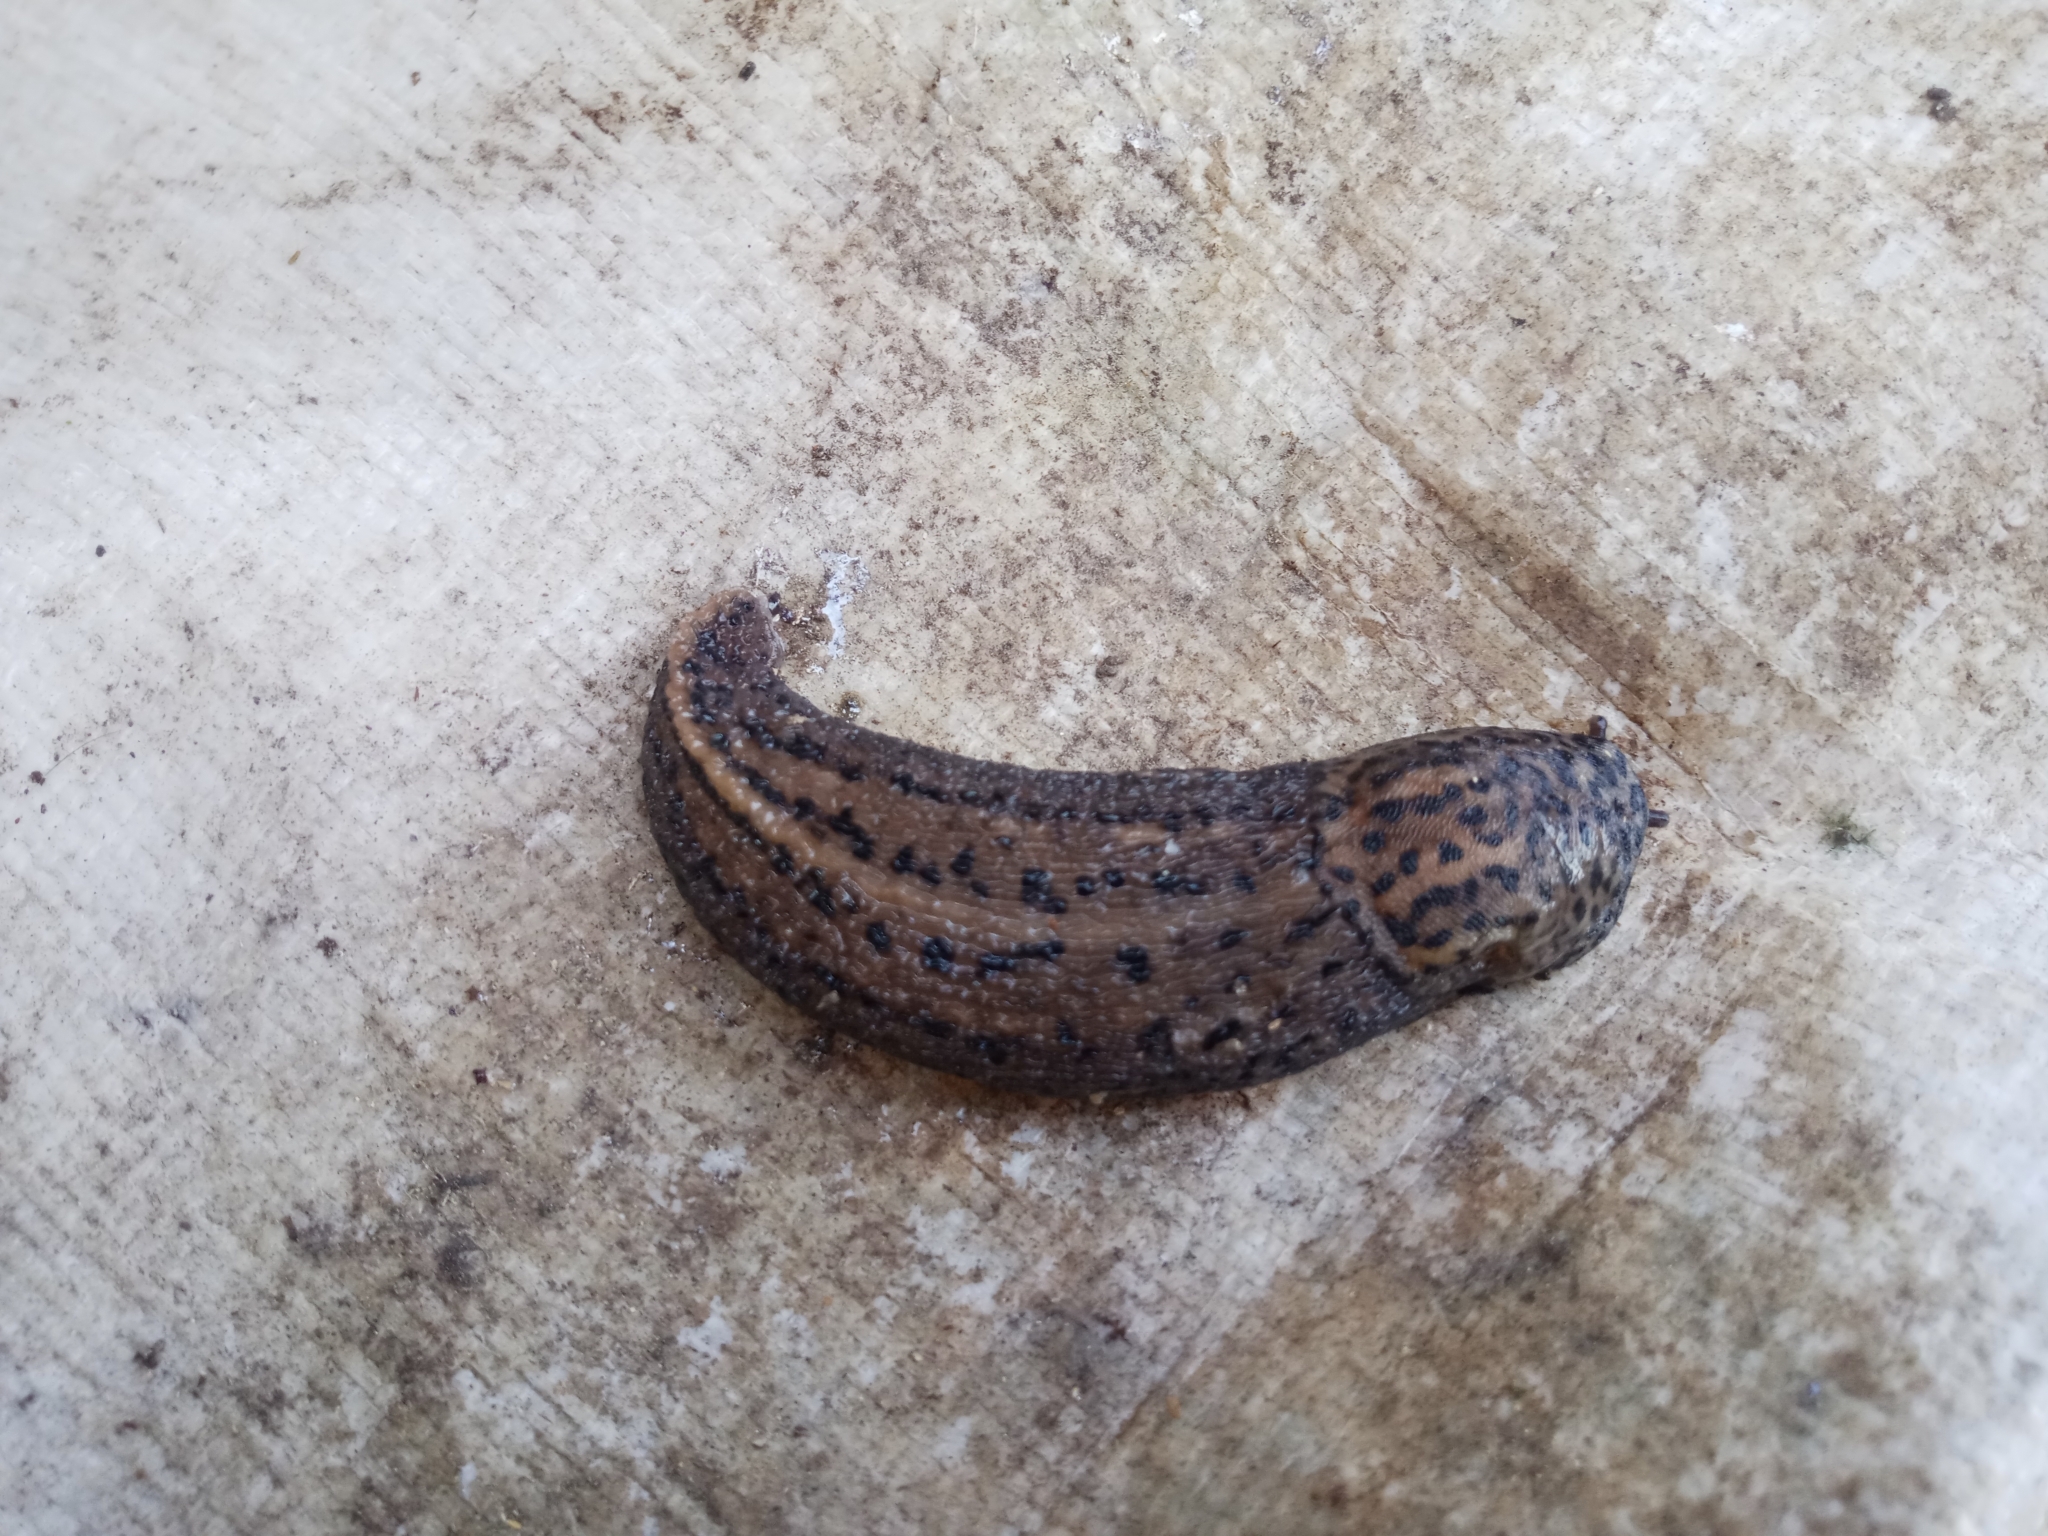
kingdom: Animalia
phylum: Mollusca
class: Gastropoda
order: Stylommatophora
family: Limacidae
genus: Limax
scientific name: Limax maximus
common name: Great grey slug
